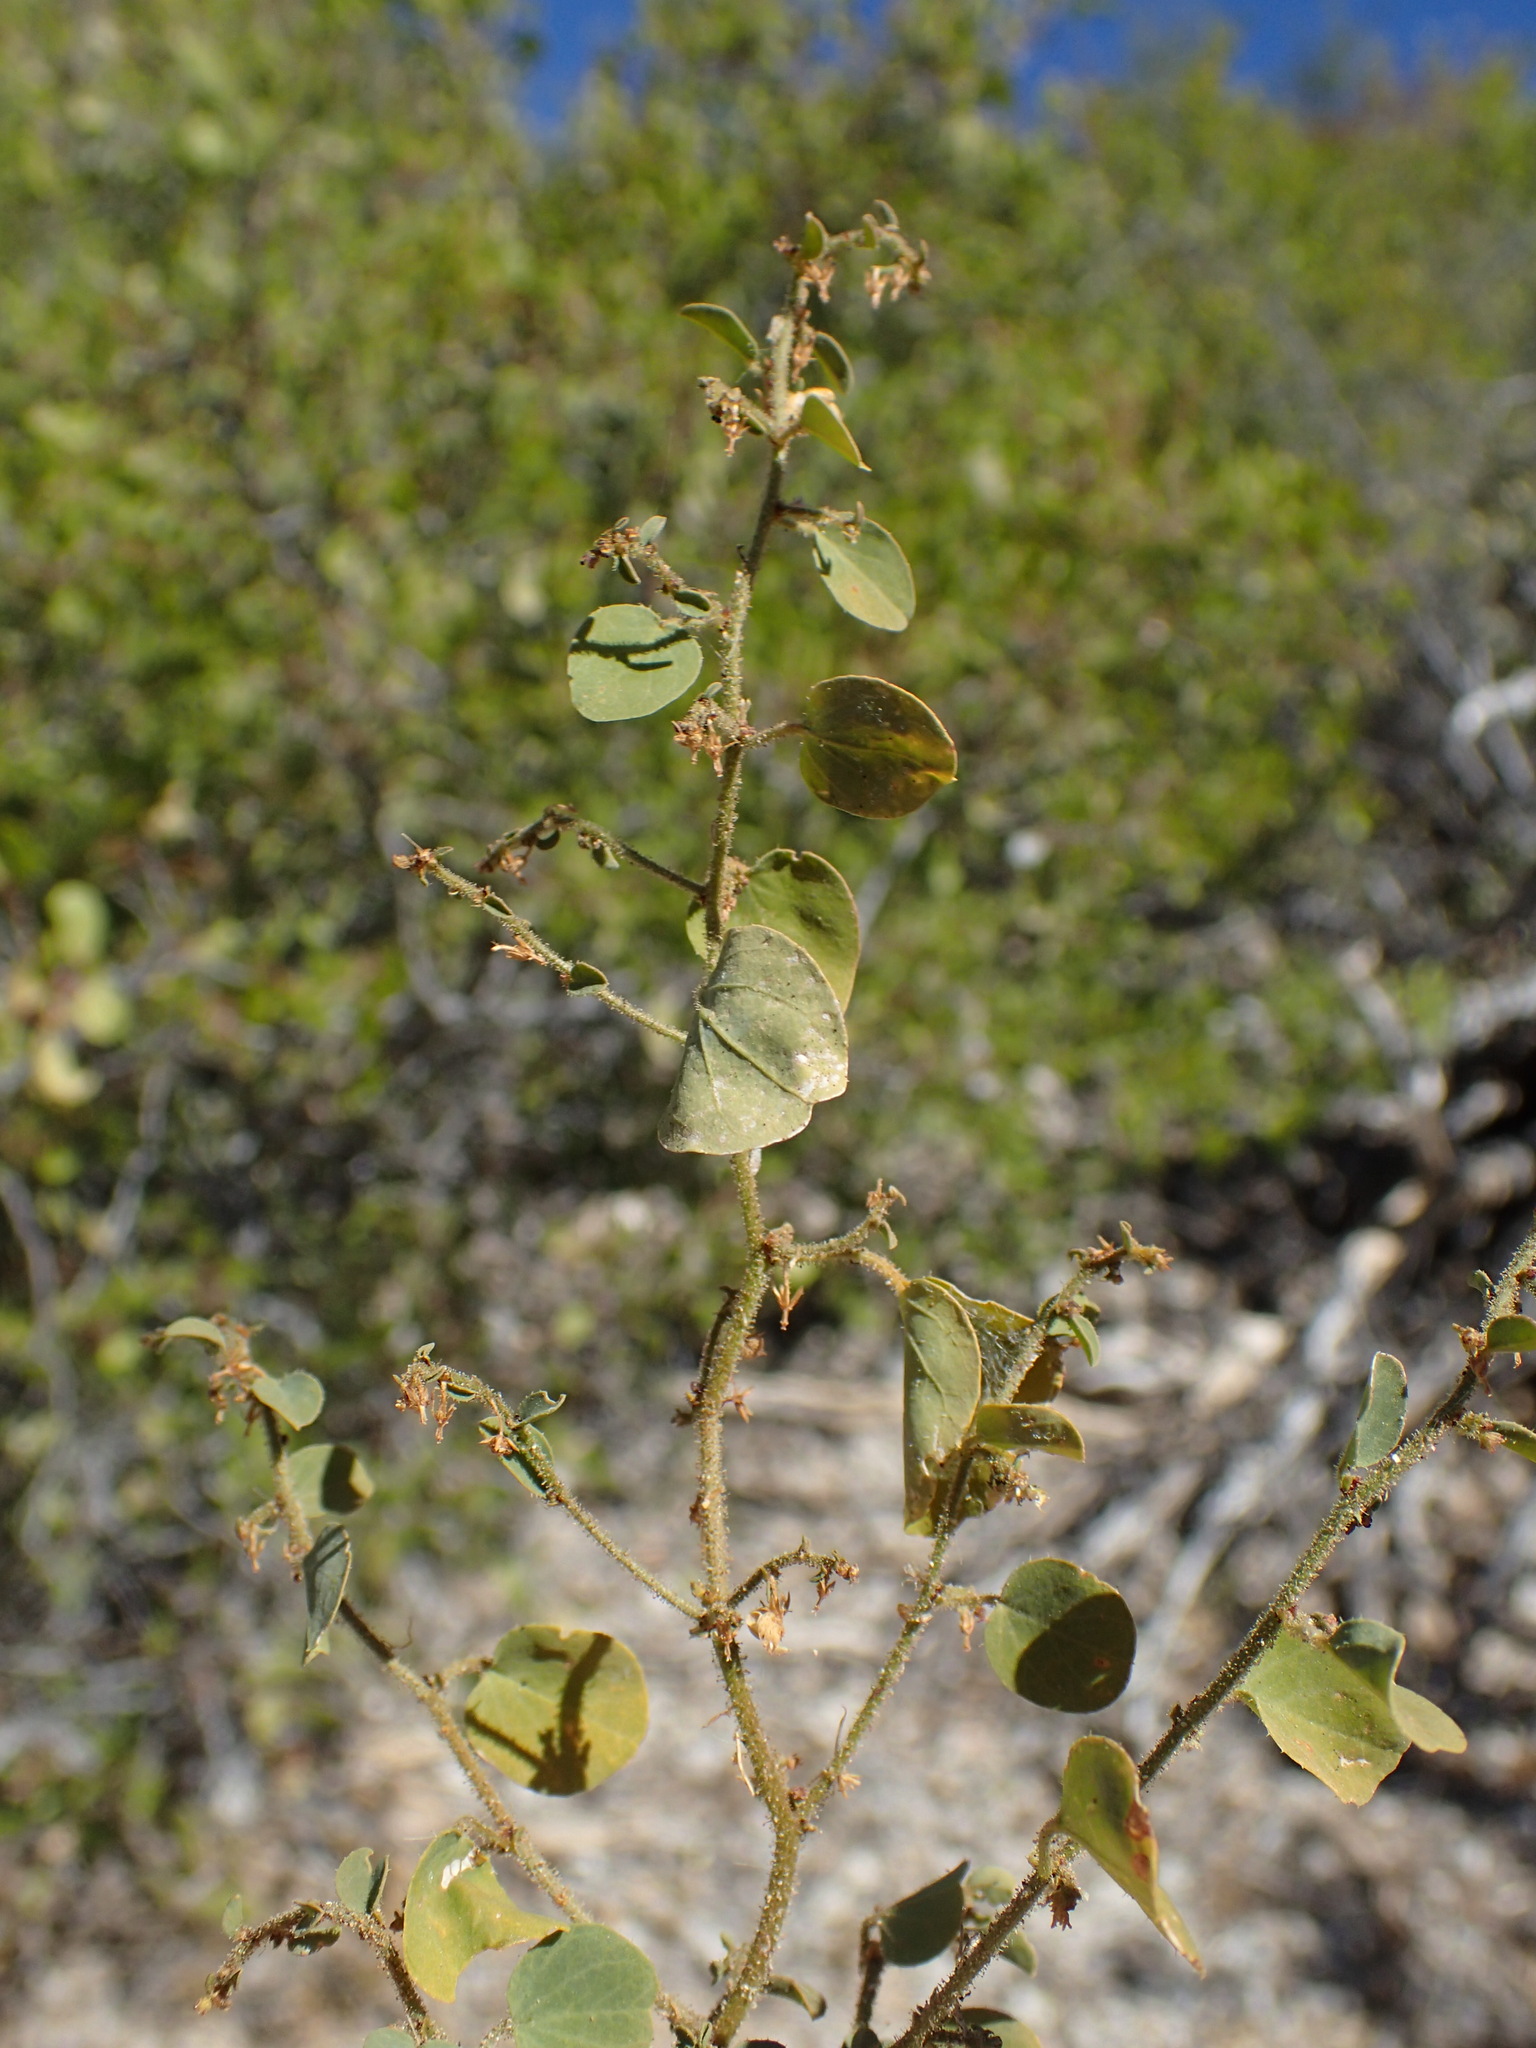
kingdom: Plantae
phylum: Tracheophyta
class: Magnoliopsida
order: Malpighiales
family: Phyllanthaceae
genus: Andrachne
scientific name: Andrachne microphylla
